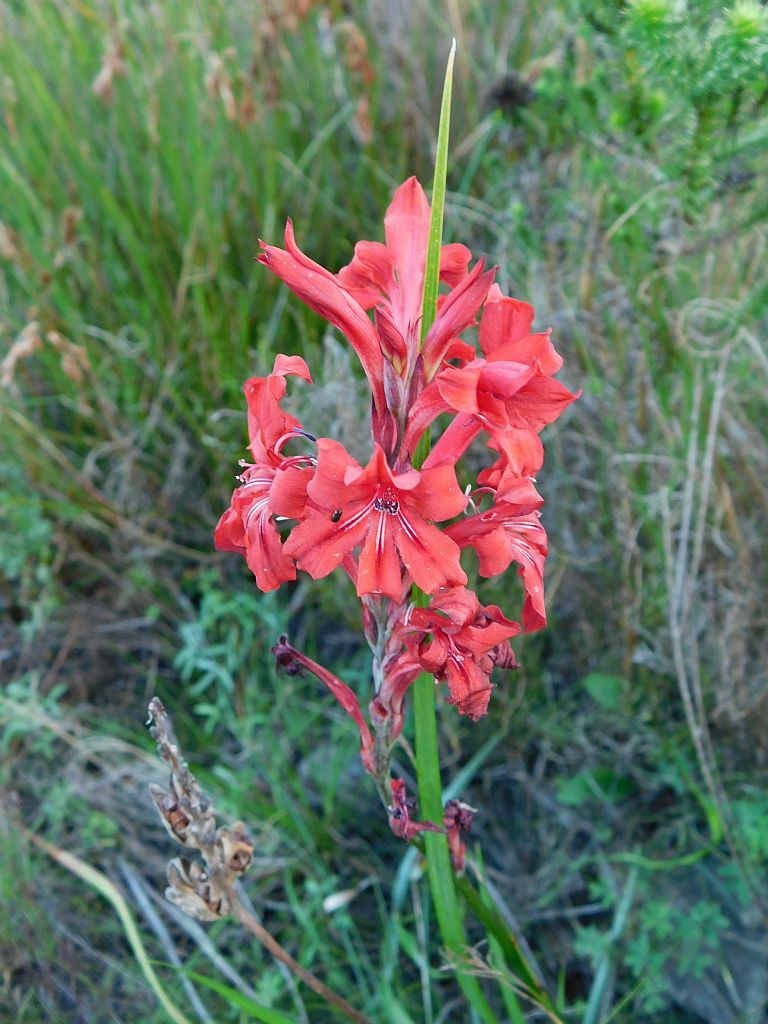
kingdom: Plantae
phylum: Tracheophyta
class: Liliopsida
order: Asparagales
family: Iridaceae
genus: Tritoniopsis
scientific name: Tritoniopsis pulchra
